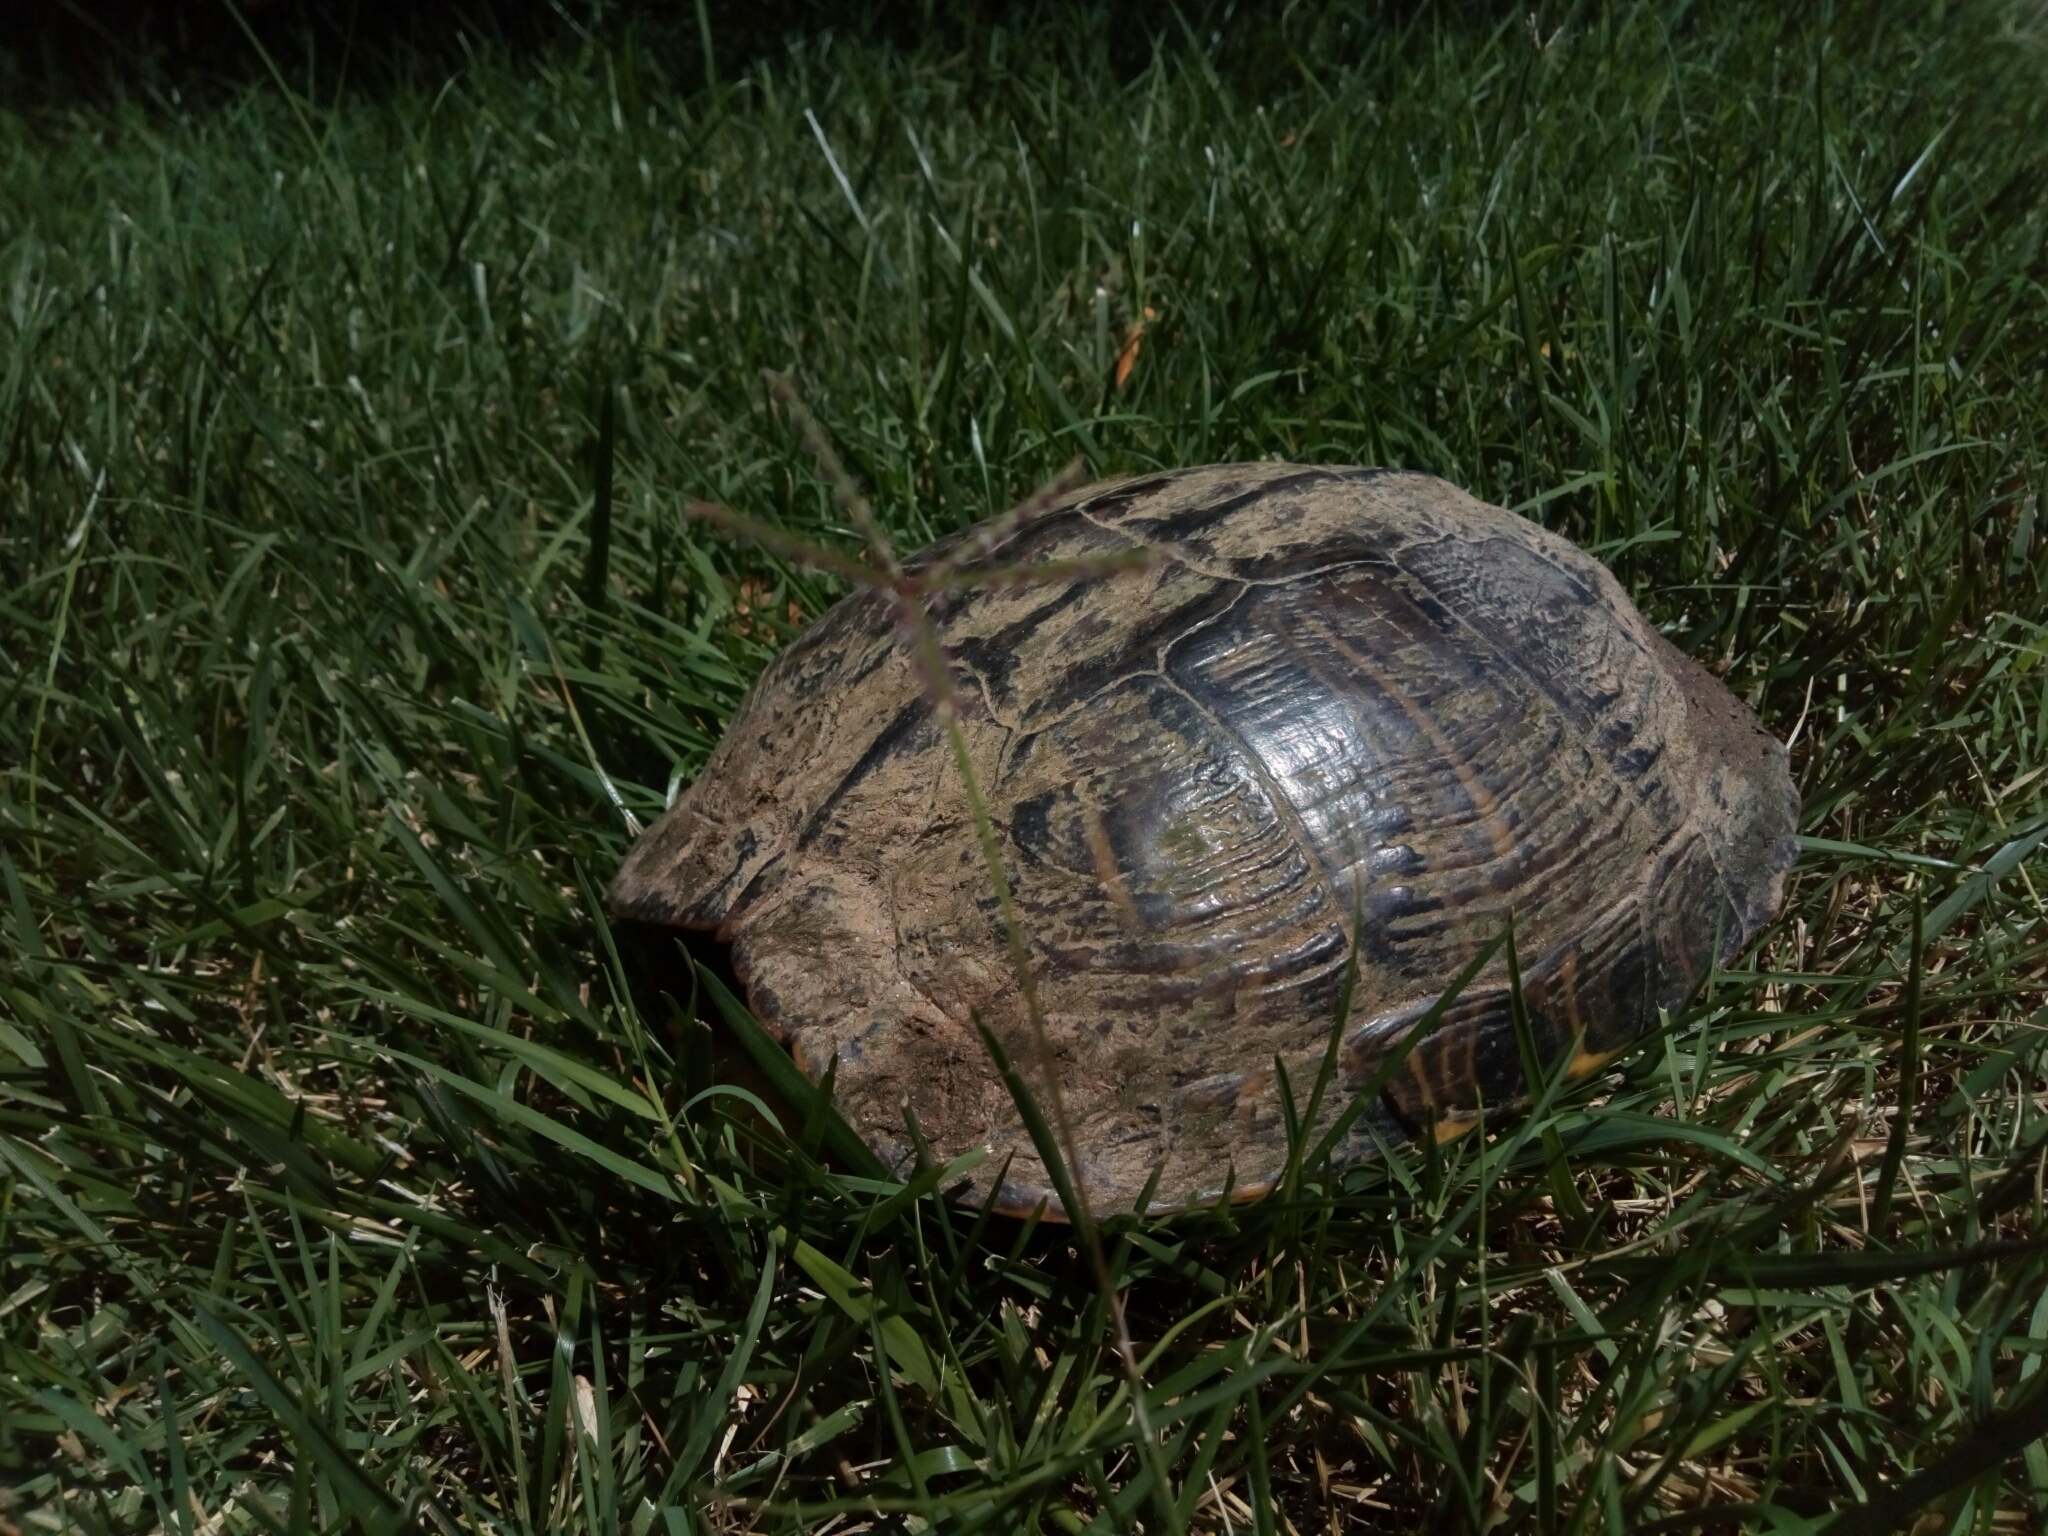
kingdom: Animalia
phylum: Chordata
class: Testudines
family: Emydidae
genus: Trachemys
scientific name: Trachemys scripta
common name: Slider
